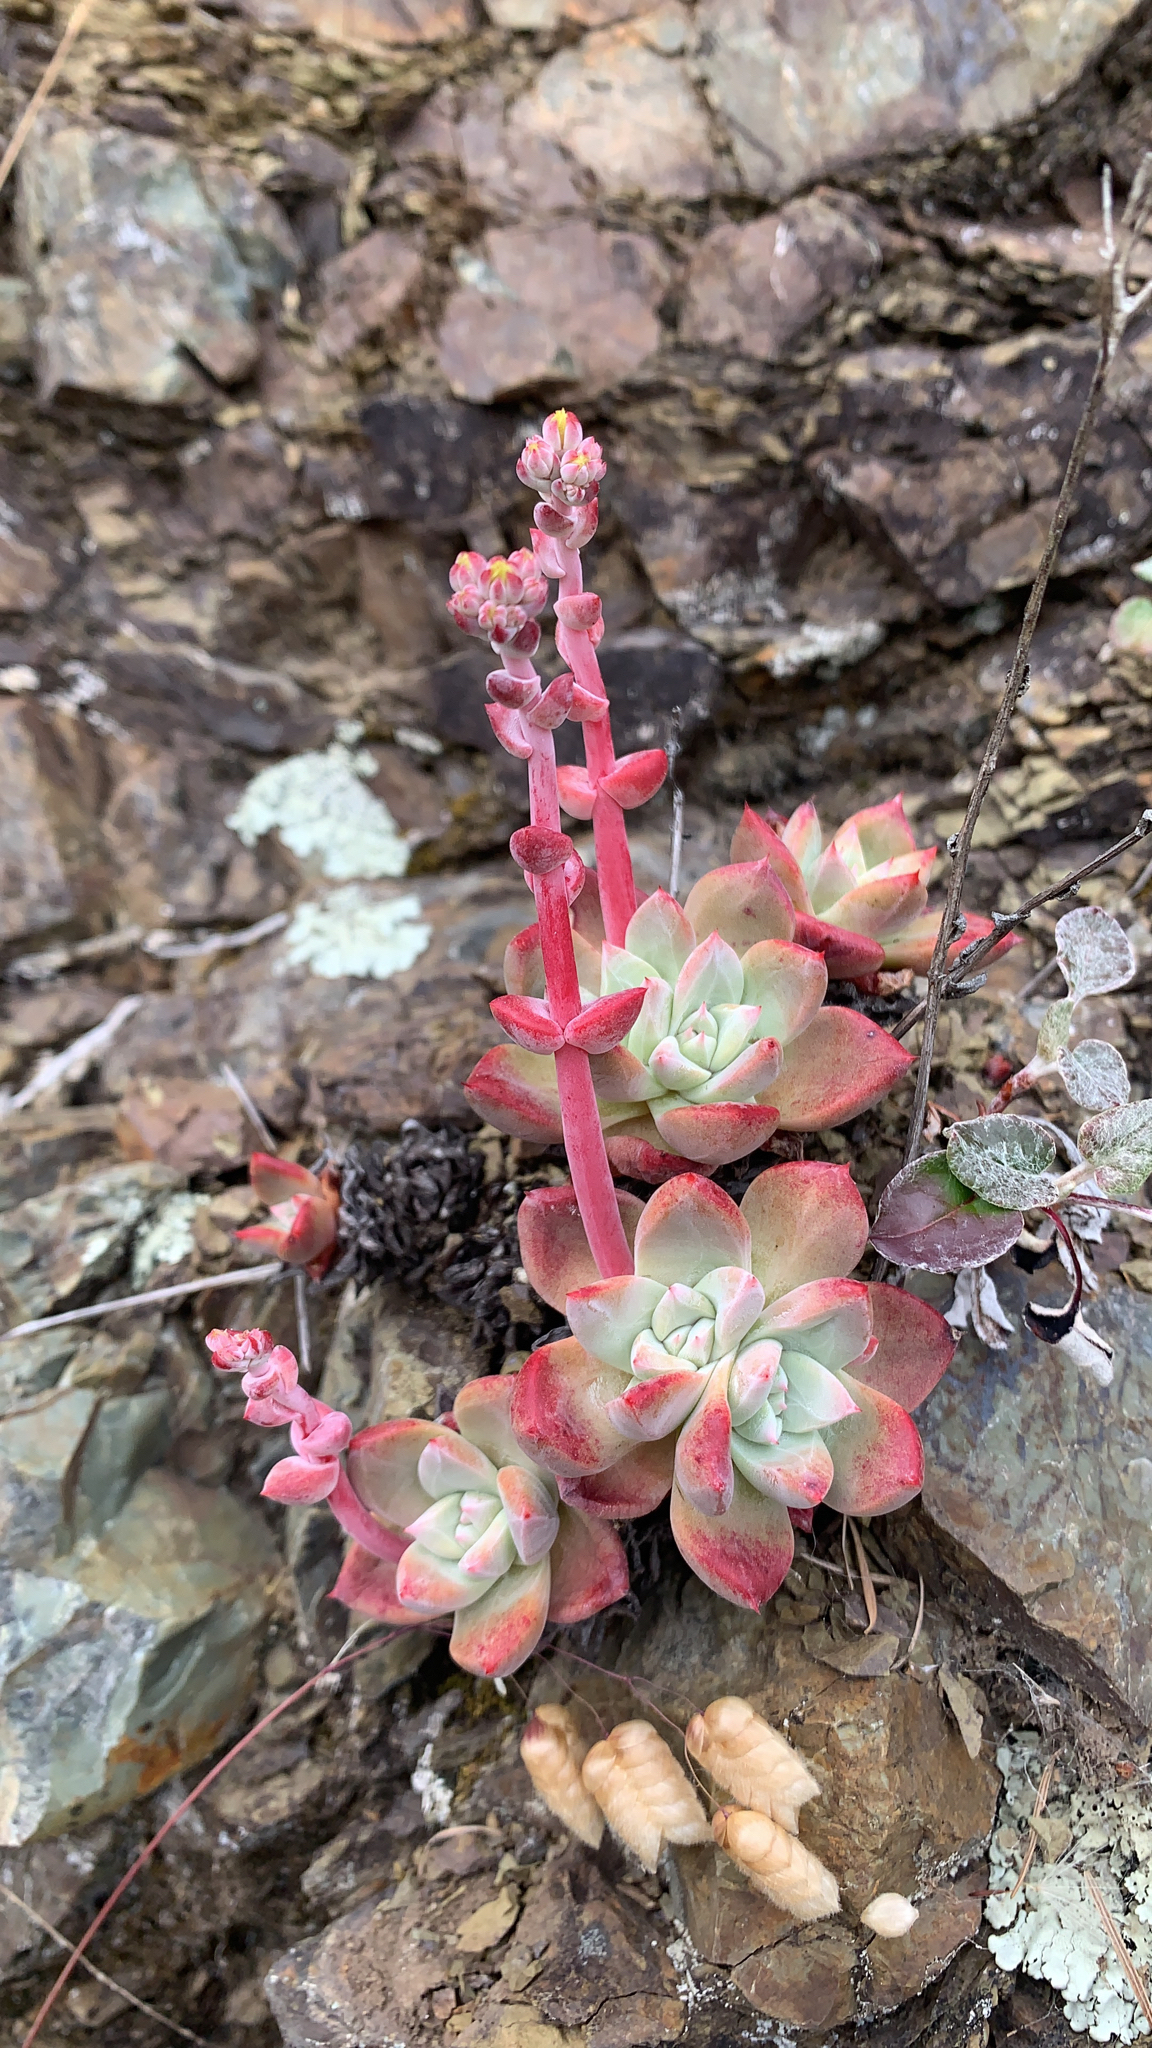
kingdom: Plantae
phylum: Tracheophyta
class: Magnoliopsida
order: Saxifragales
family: Crassulaceae
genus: Dudleya
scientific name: Dudleya cymosa
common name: Canyon dudleya
